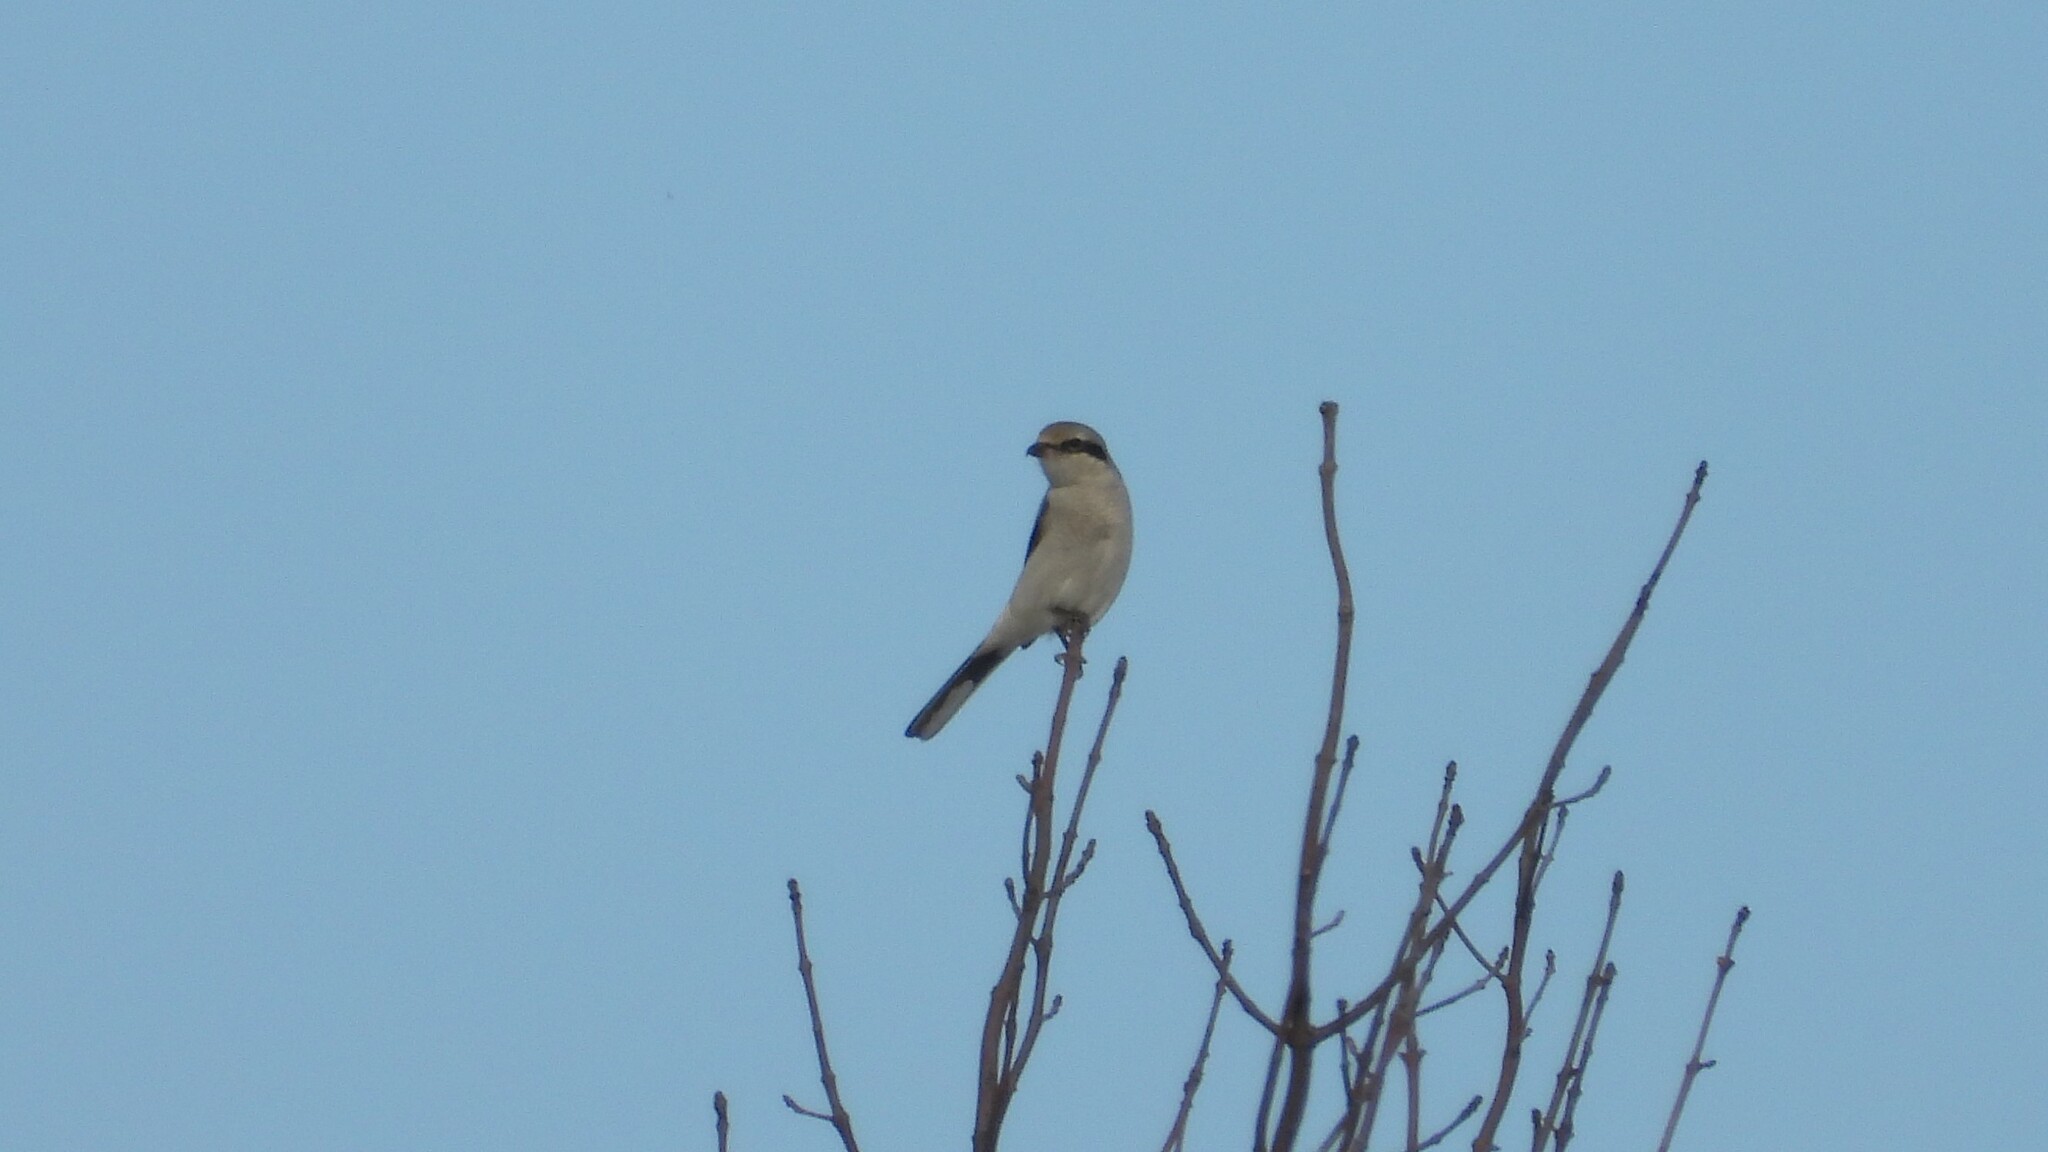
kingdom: Animalia
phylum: Chordata
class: Aves
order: Passeriformes
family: Laniidae
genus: Lanius
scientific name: Lanius borealis
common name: Northern shrike
